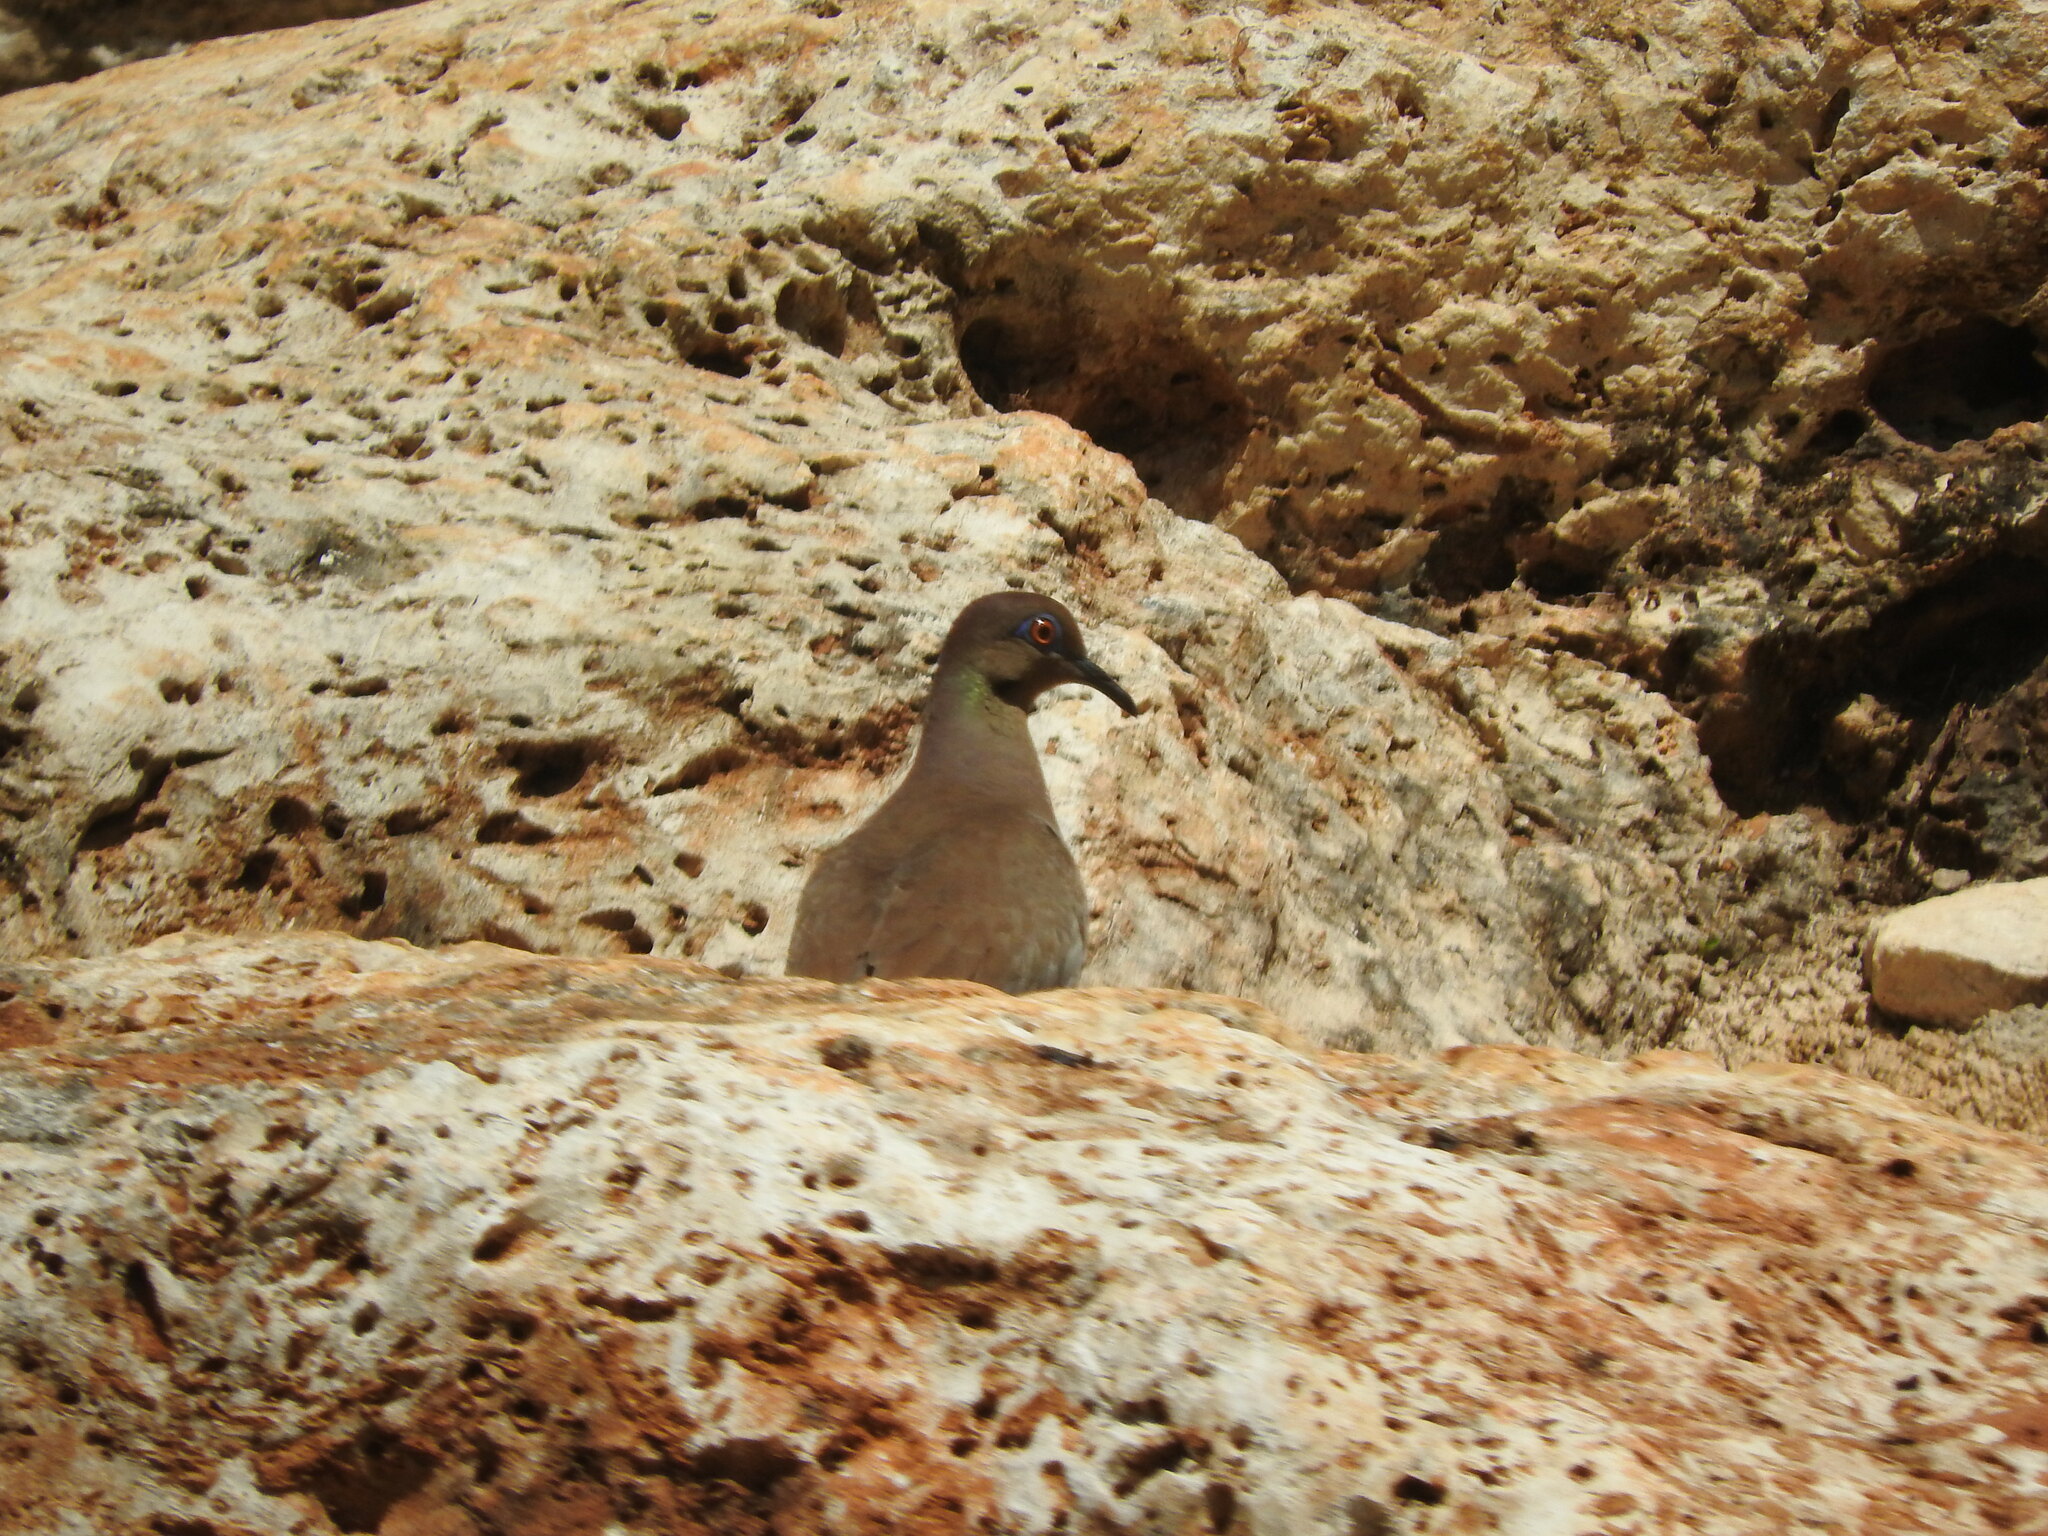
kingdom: Animalia
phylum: Chordata
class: Aves
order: Columbiformes
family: Columbidae
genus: Zenaida
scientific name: Zenaida asiatica
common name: White-winged dove
